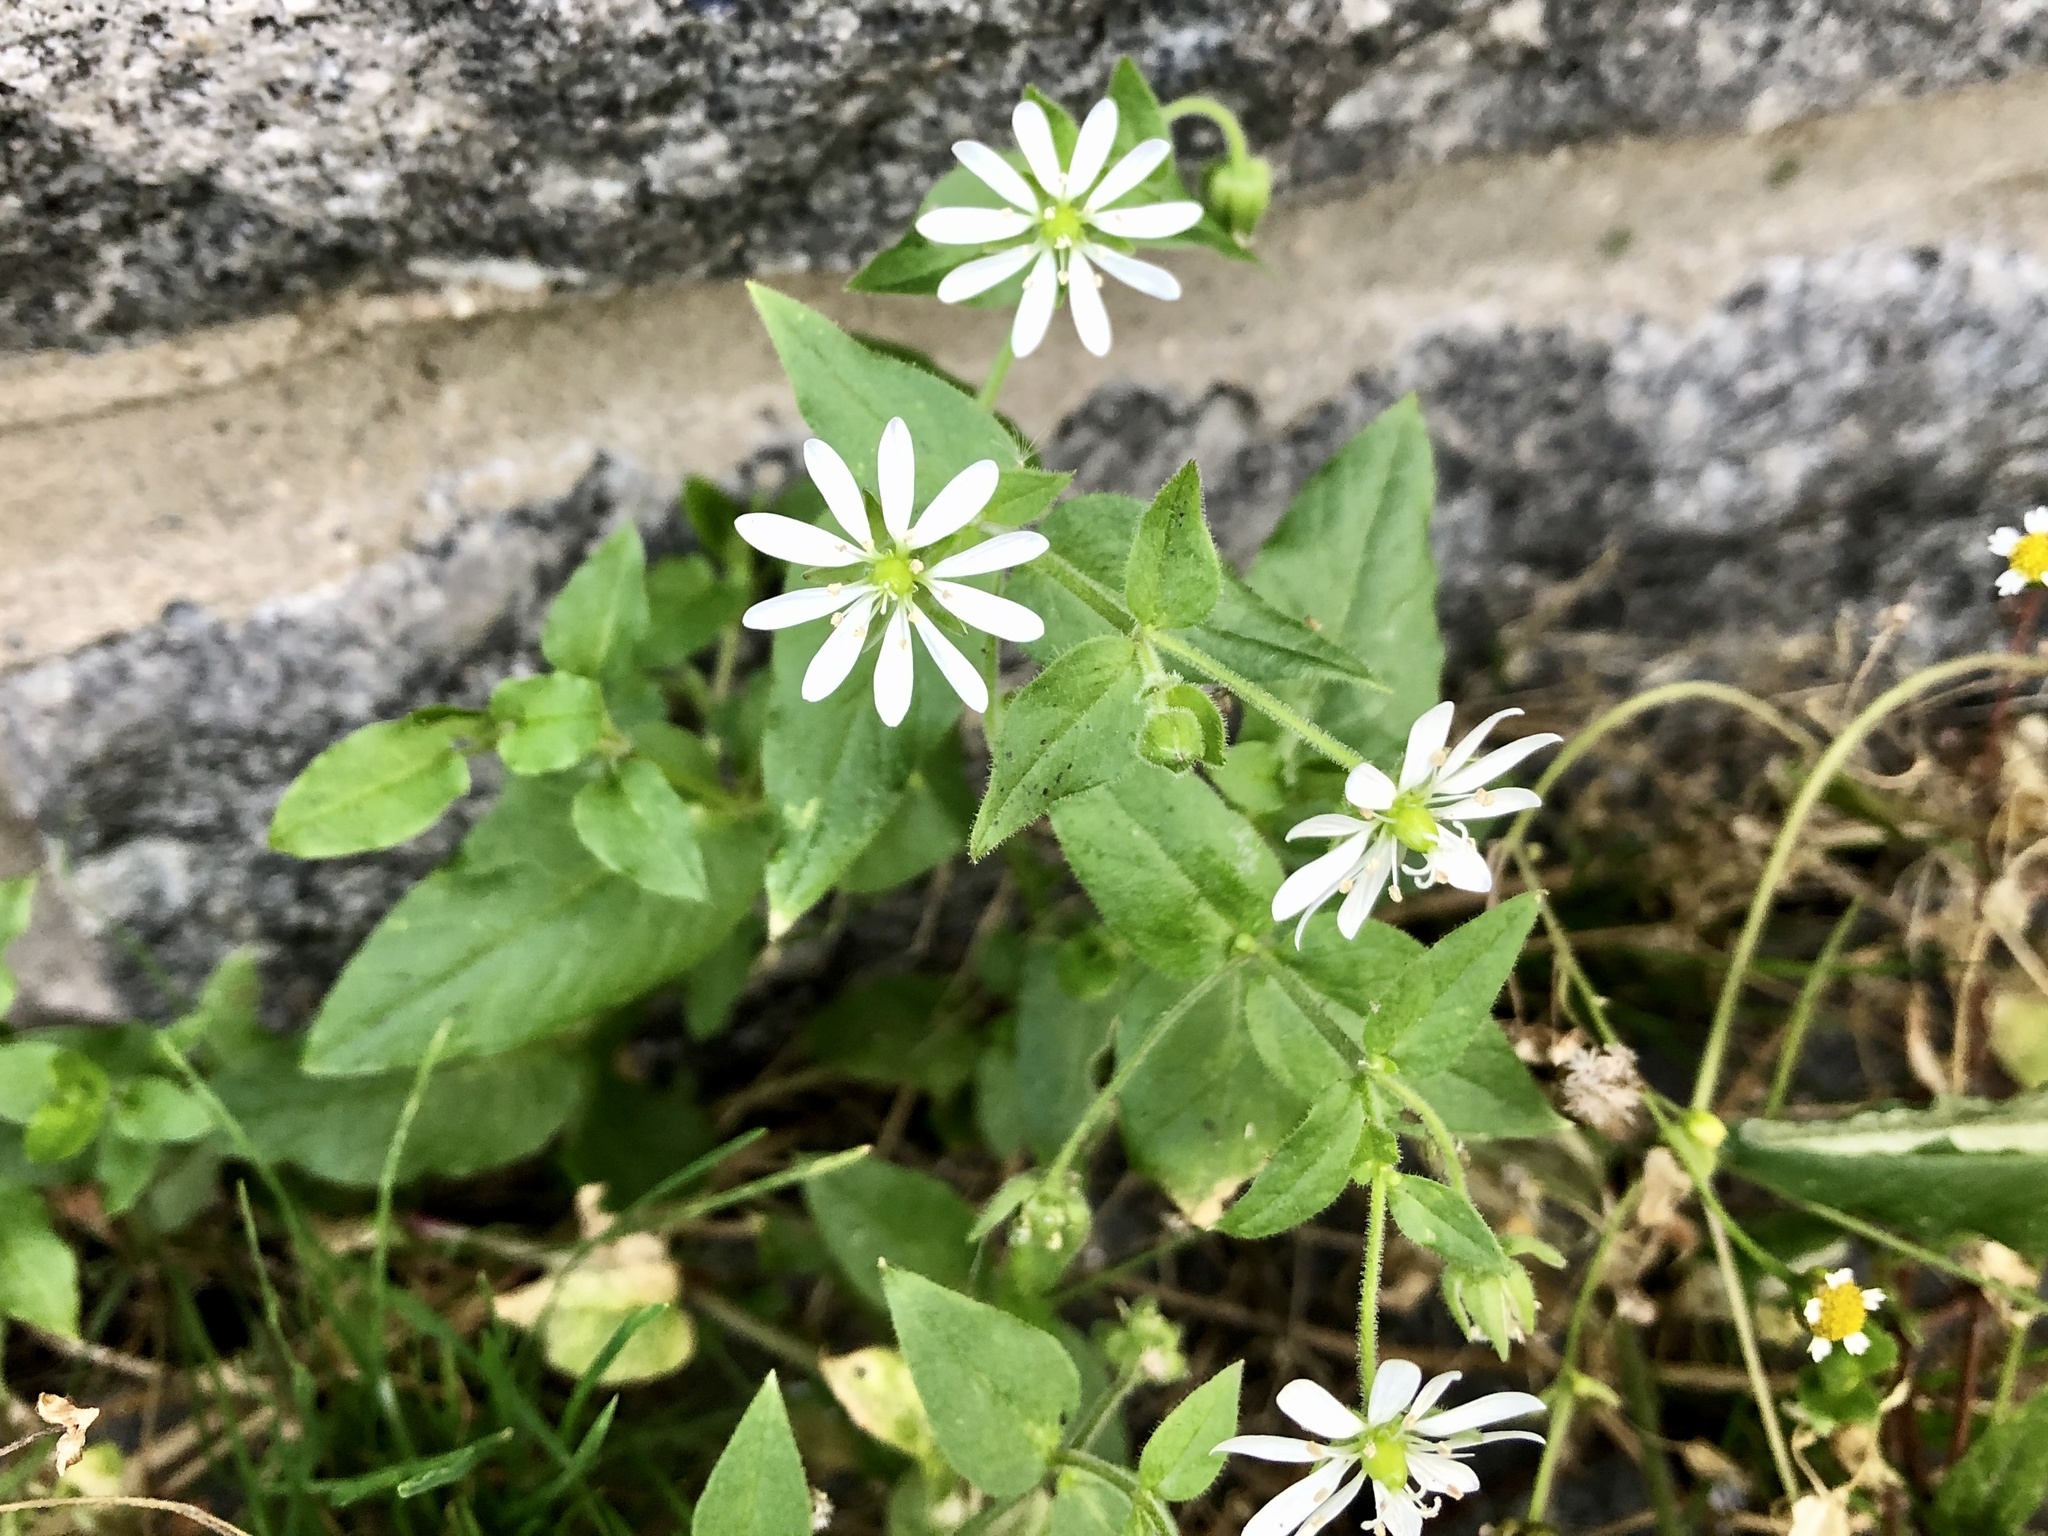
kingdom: Plantae
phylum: Tracheophyta
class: Magnoliopsida
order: Caryophyllales
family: Caryophyllaceae
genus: Stellaria
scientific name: Stellaria aquatica
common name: Water chickweed
